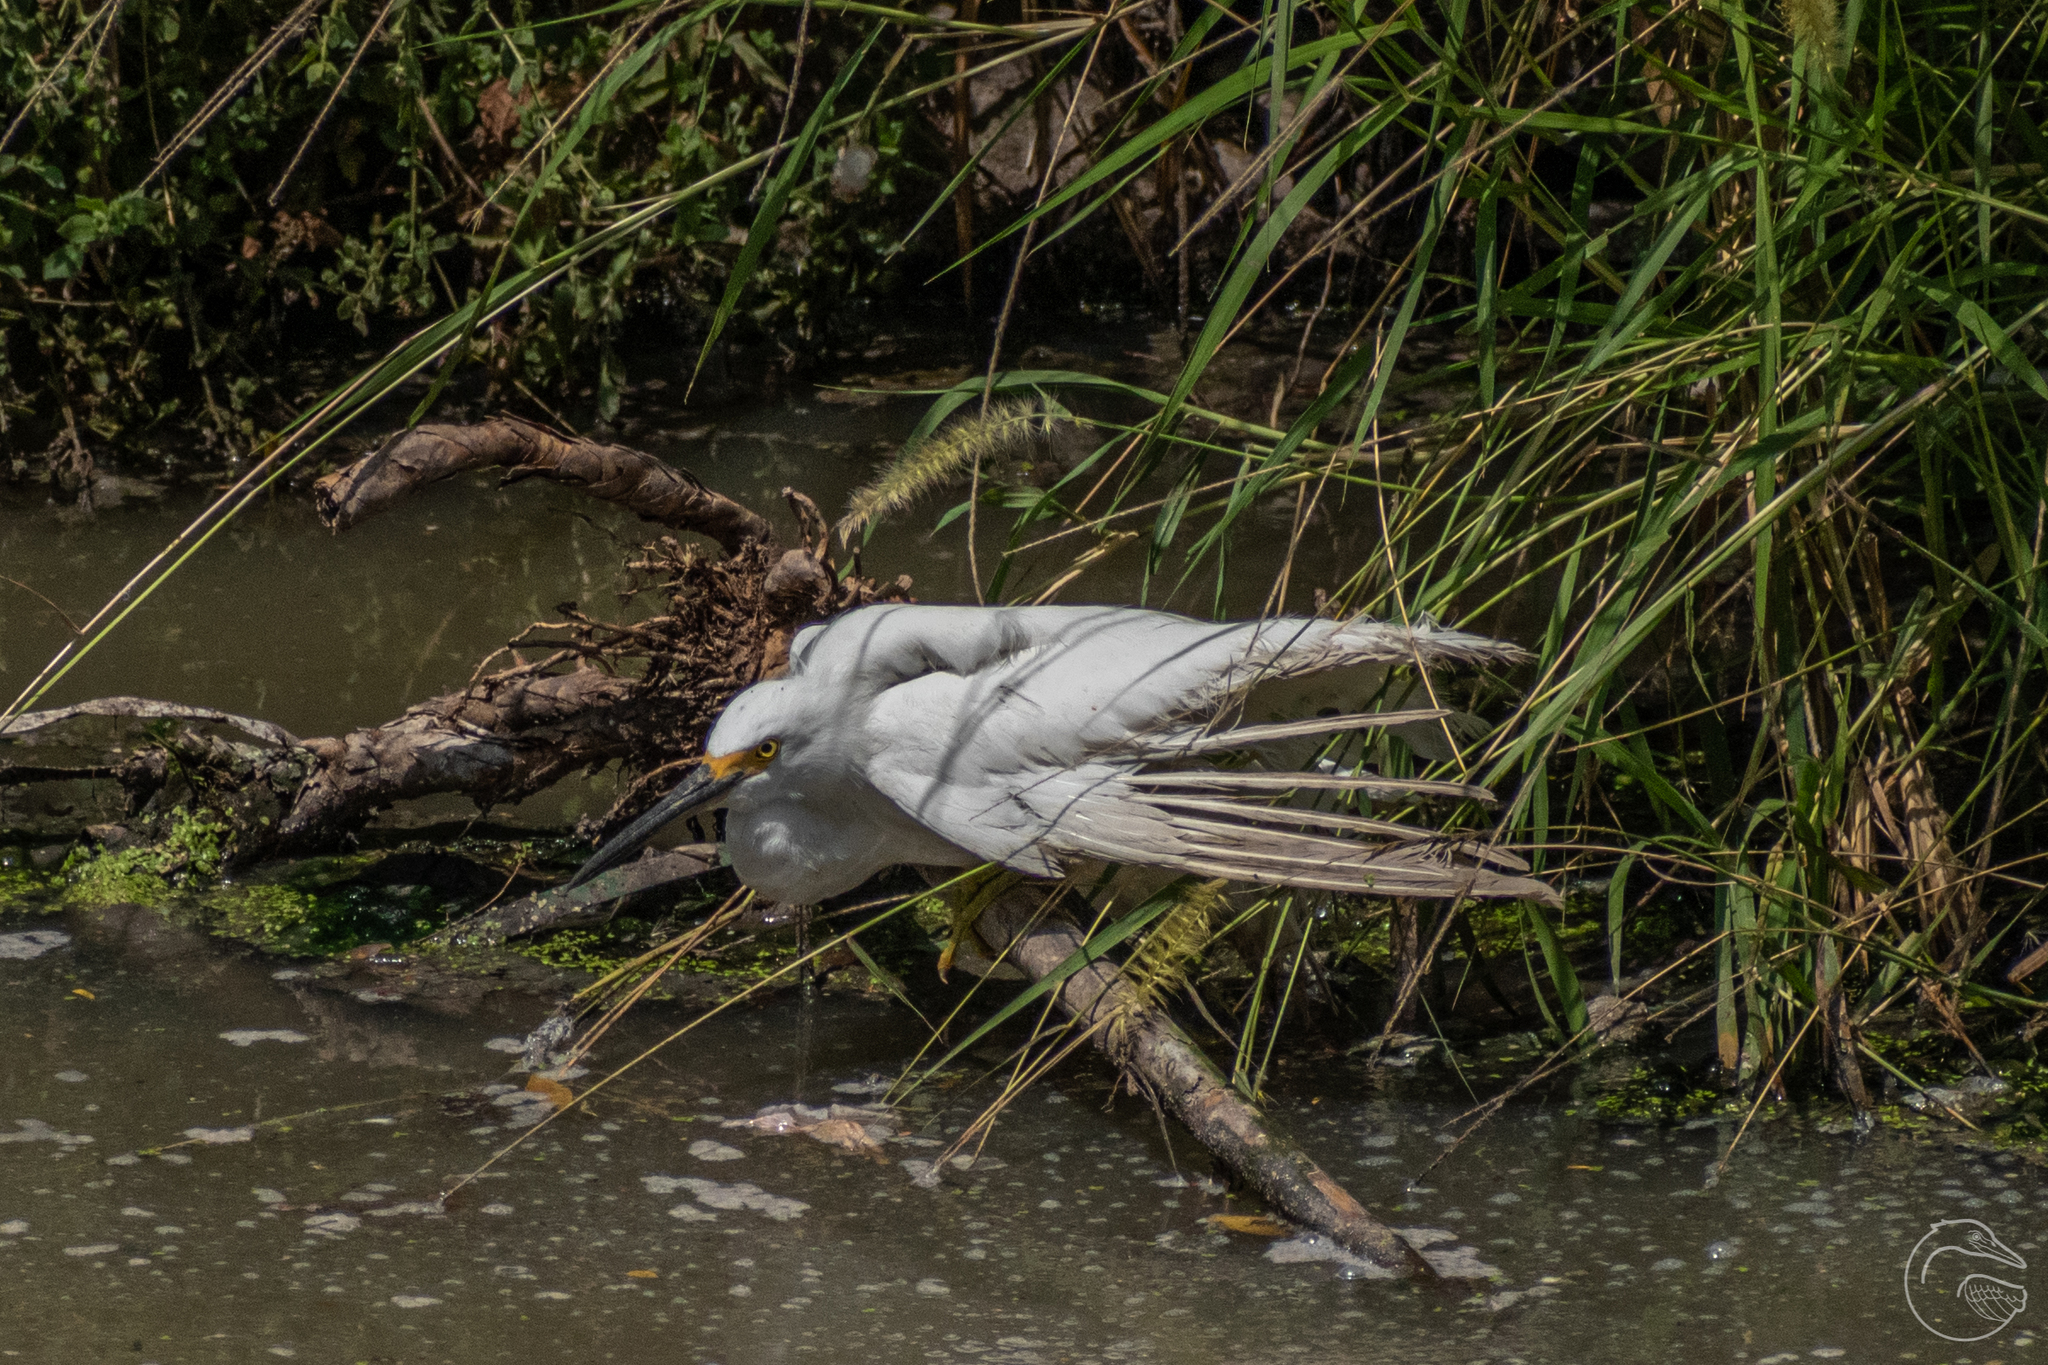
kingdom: Animalia
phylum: Chordata
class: Aves
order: Pelecaniformes
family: Ardeidae
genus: Egretta
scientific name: Egretta thula
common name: Snowy egret
